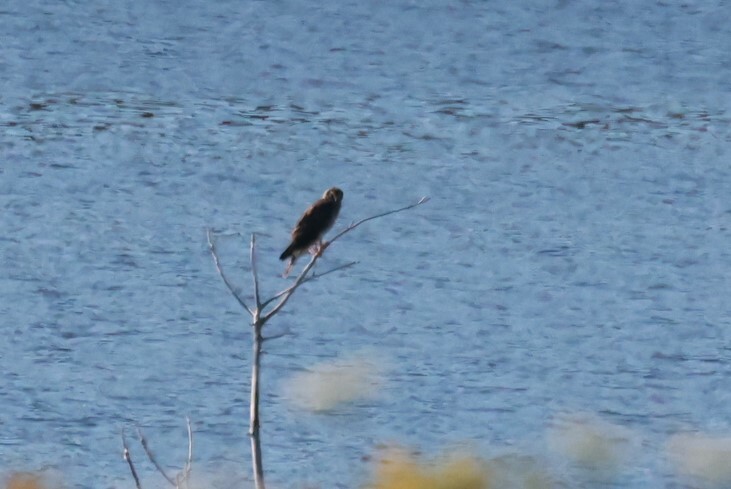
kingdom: Animalia
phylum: Chordata
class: Aves
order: Accipitriformes
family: Accipitridae
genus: Circus
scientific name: Circus cyaneus
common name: Hen harrier
